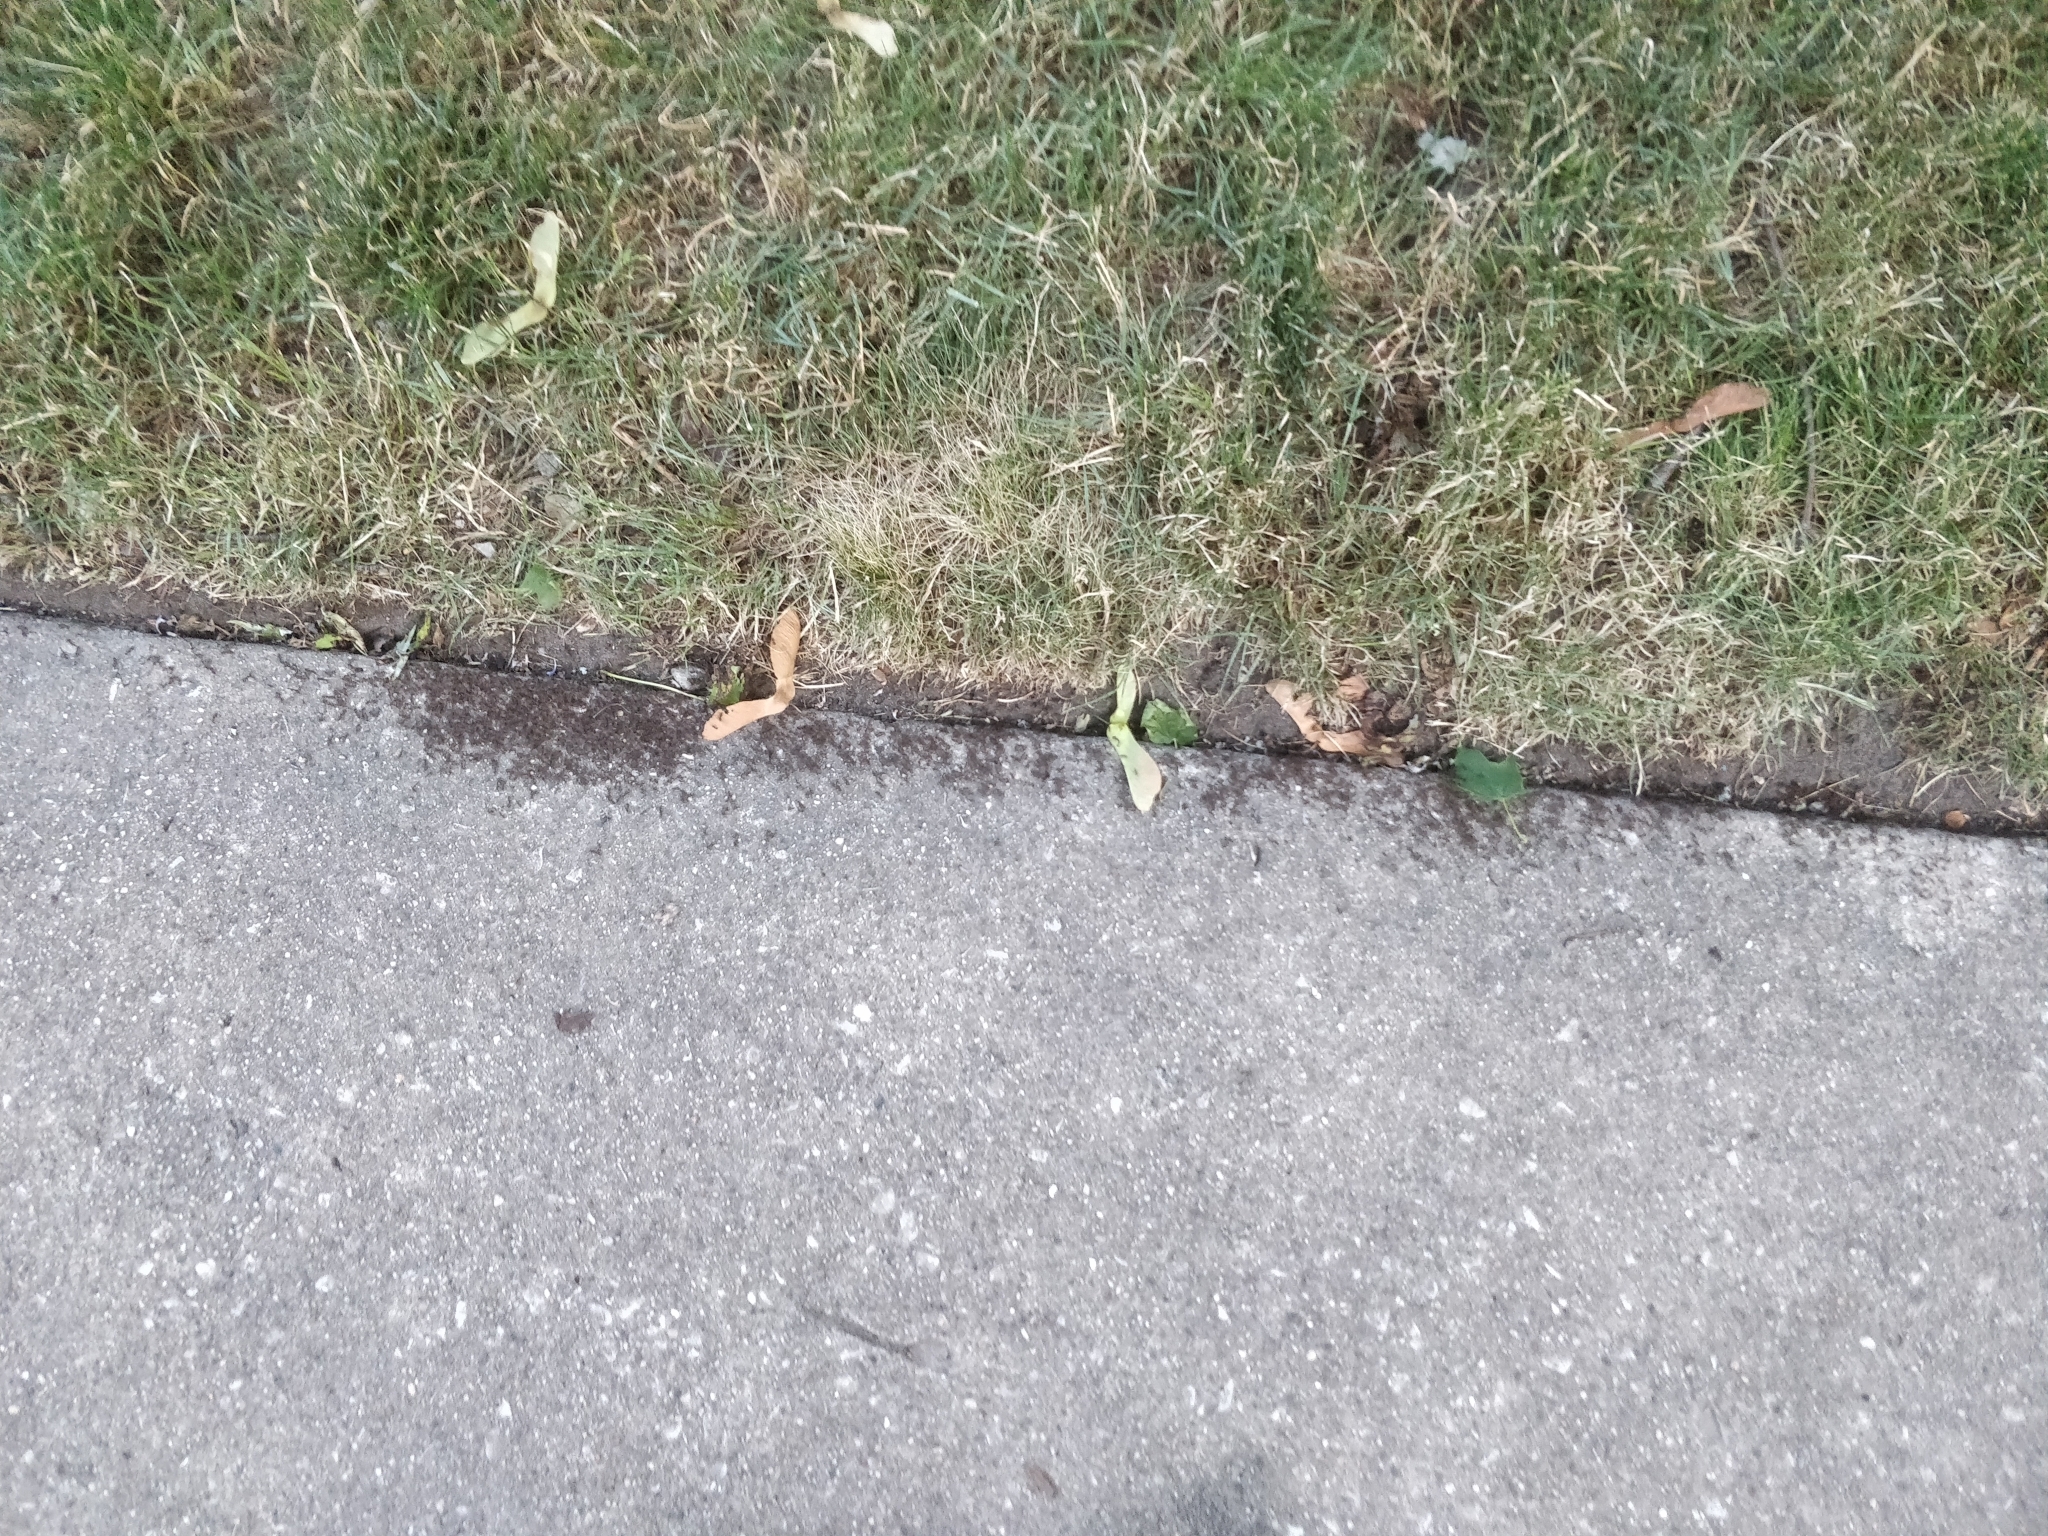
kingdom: Animalia
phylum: Arthropoda
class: Insecta
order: Hymenoptera
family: Formicidae
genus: Tetramorium
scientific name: Tetramorium immigrans
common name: Pavement ant
